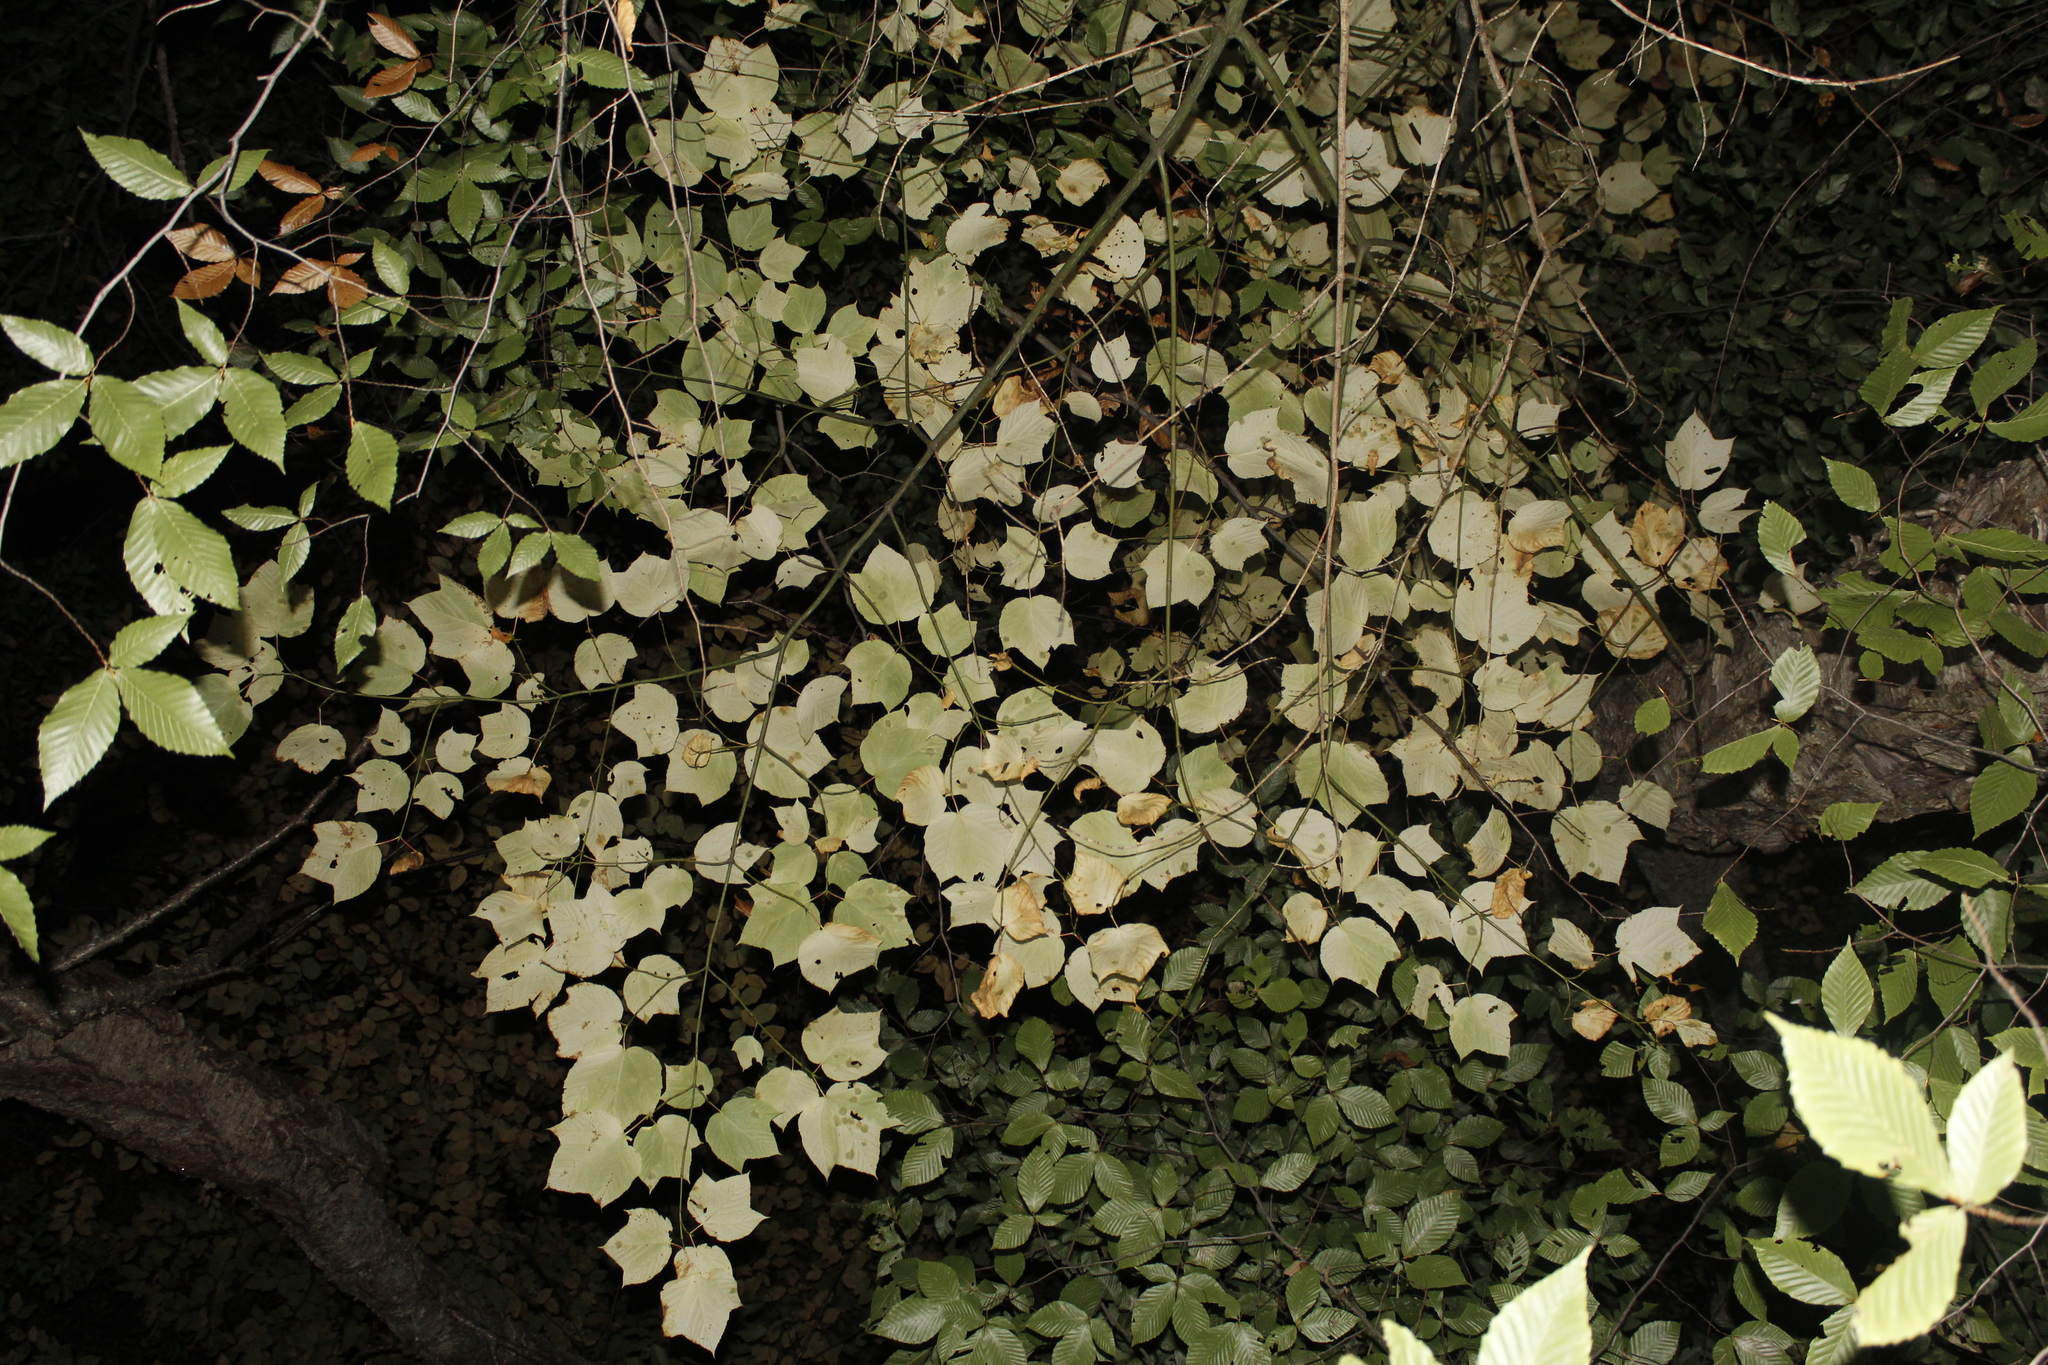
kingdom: Plantae
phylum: Tracheophyta
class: Magnoliopsida
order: Sapindales
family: Sapindaceae
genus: Acer
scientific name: Acer pensylvanicum
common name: Moosewood
